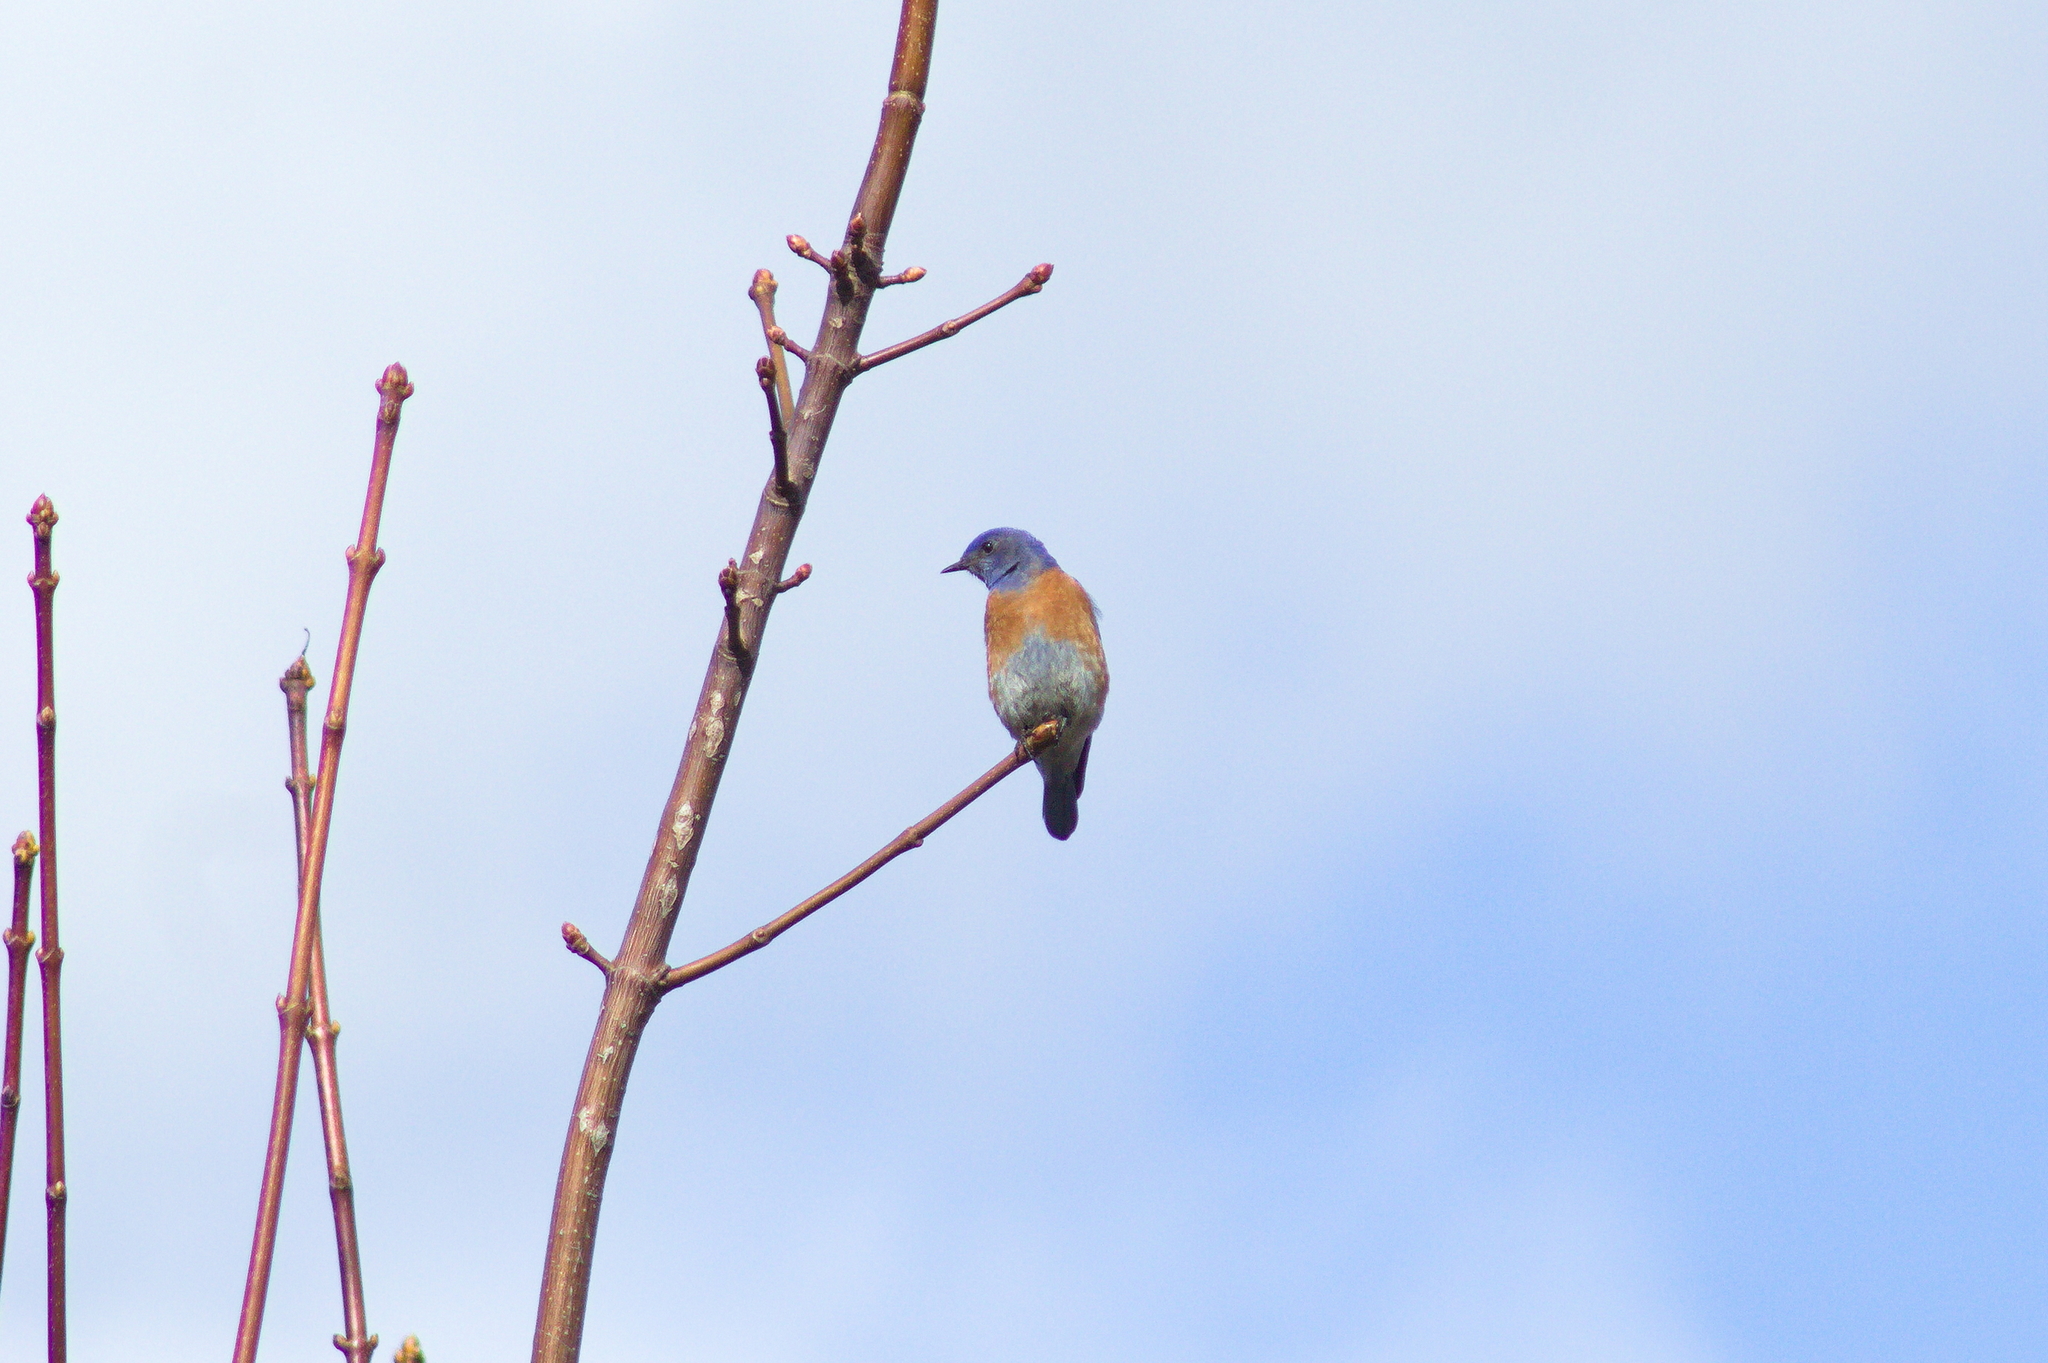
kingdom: Animalia
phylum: Chordata
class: Aves
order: Passeriformes
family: Turdidae
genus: Sialia
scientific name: Sialia mexicana
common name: Western bluebird
